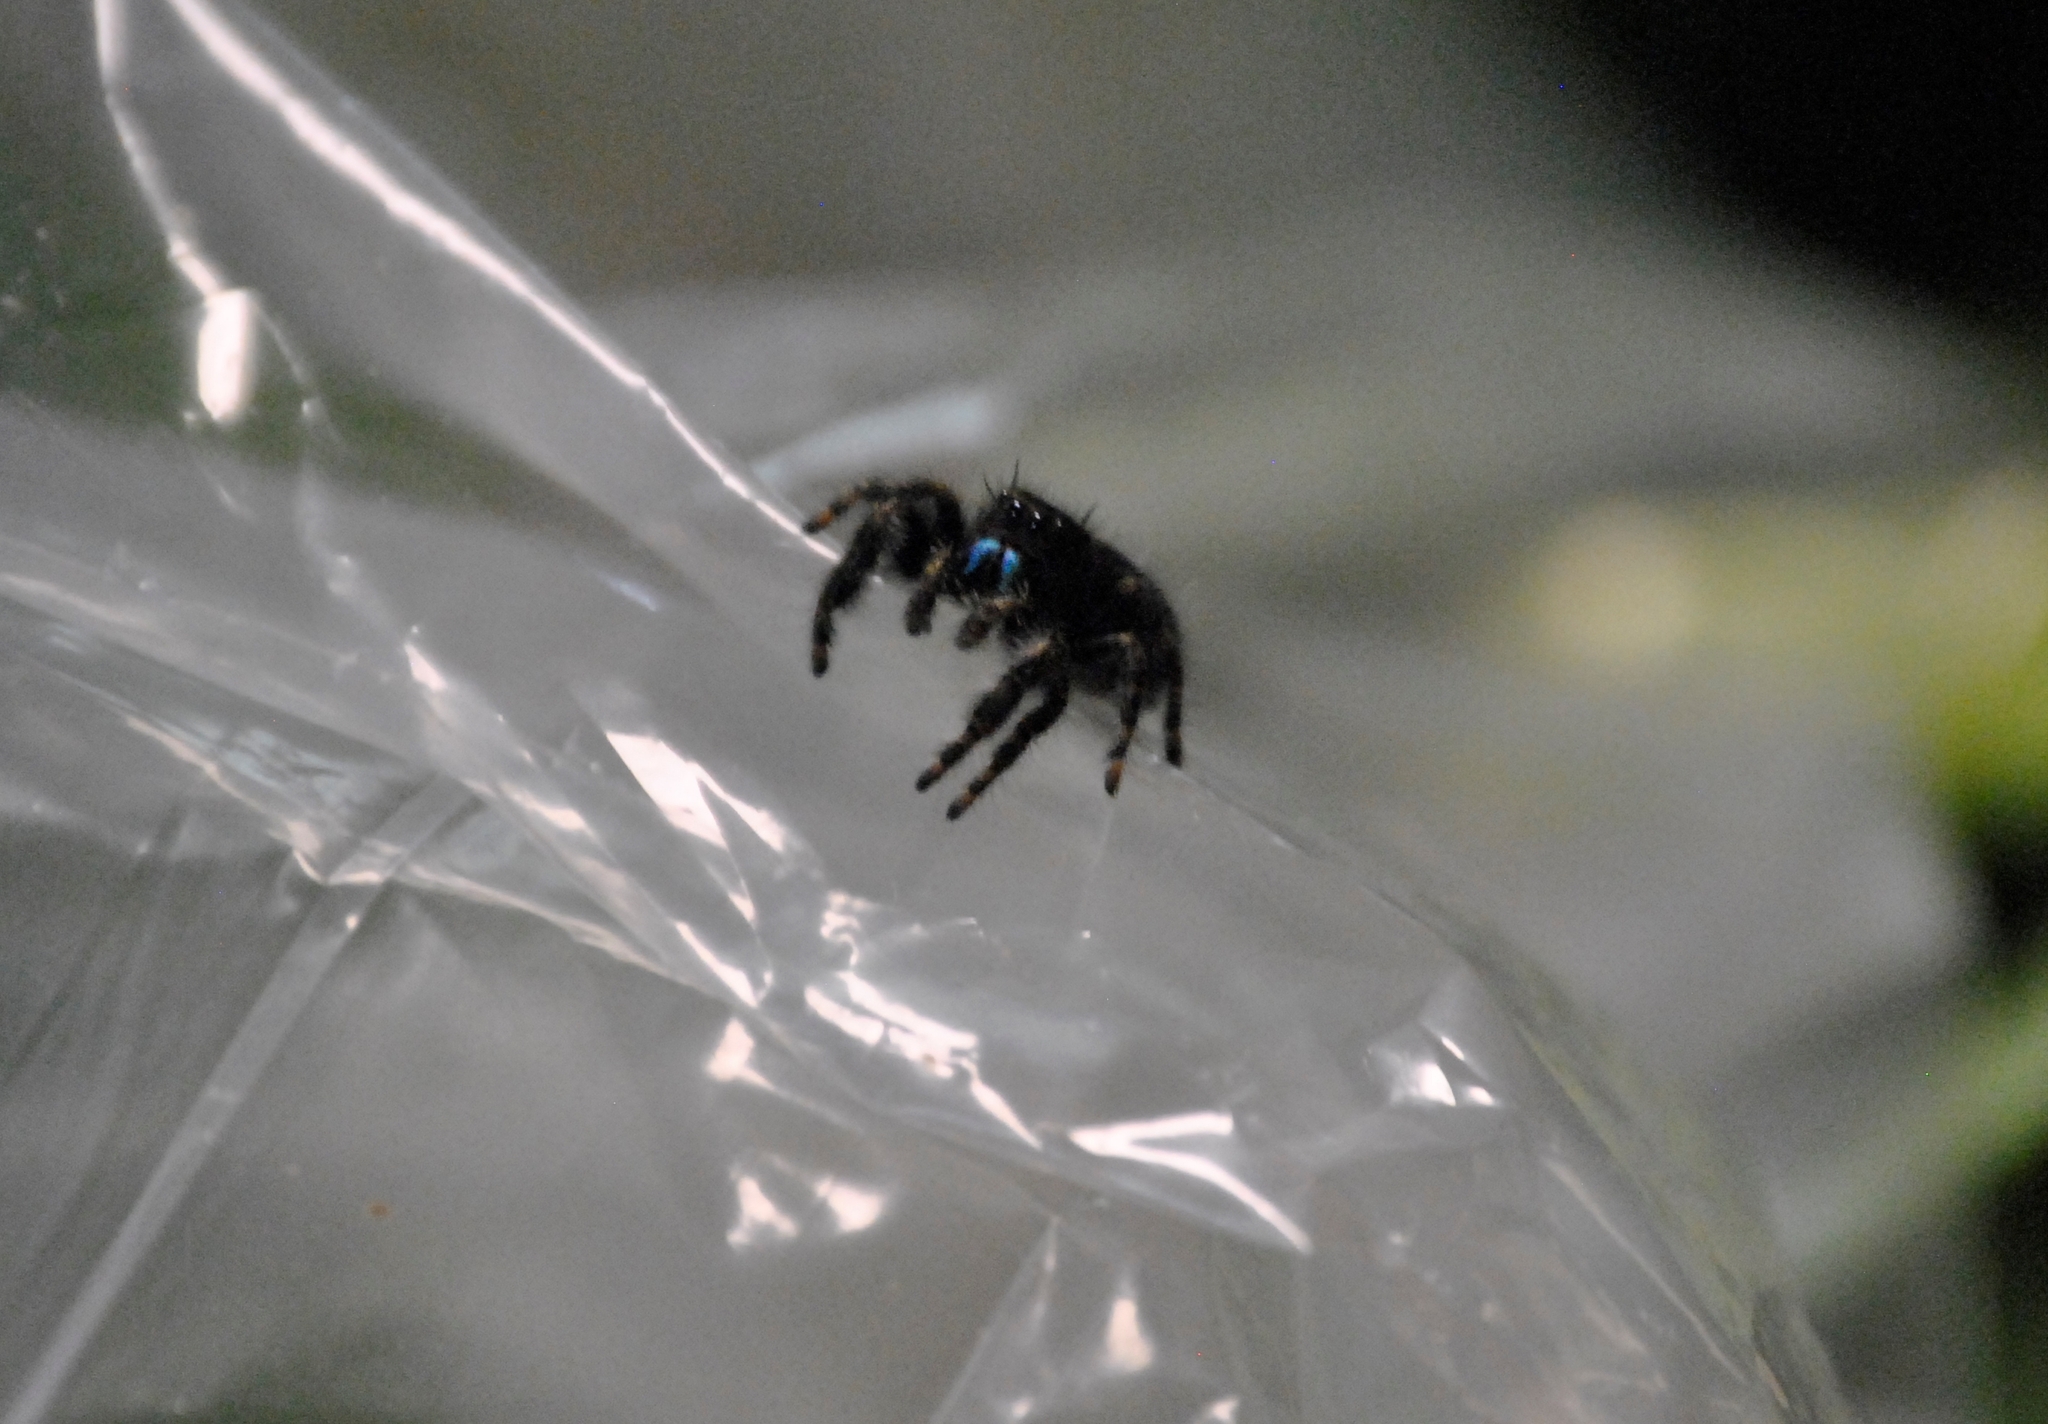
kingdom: Animalia
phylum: Arthropoda
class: Arachnida
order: Araneae
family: Salticidae
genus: Phidippus
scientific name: Phidippus audax
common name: Bold jumper
